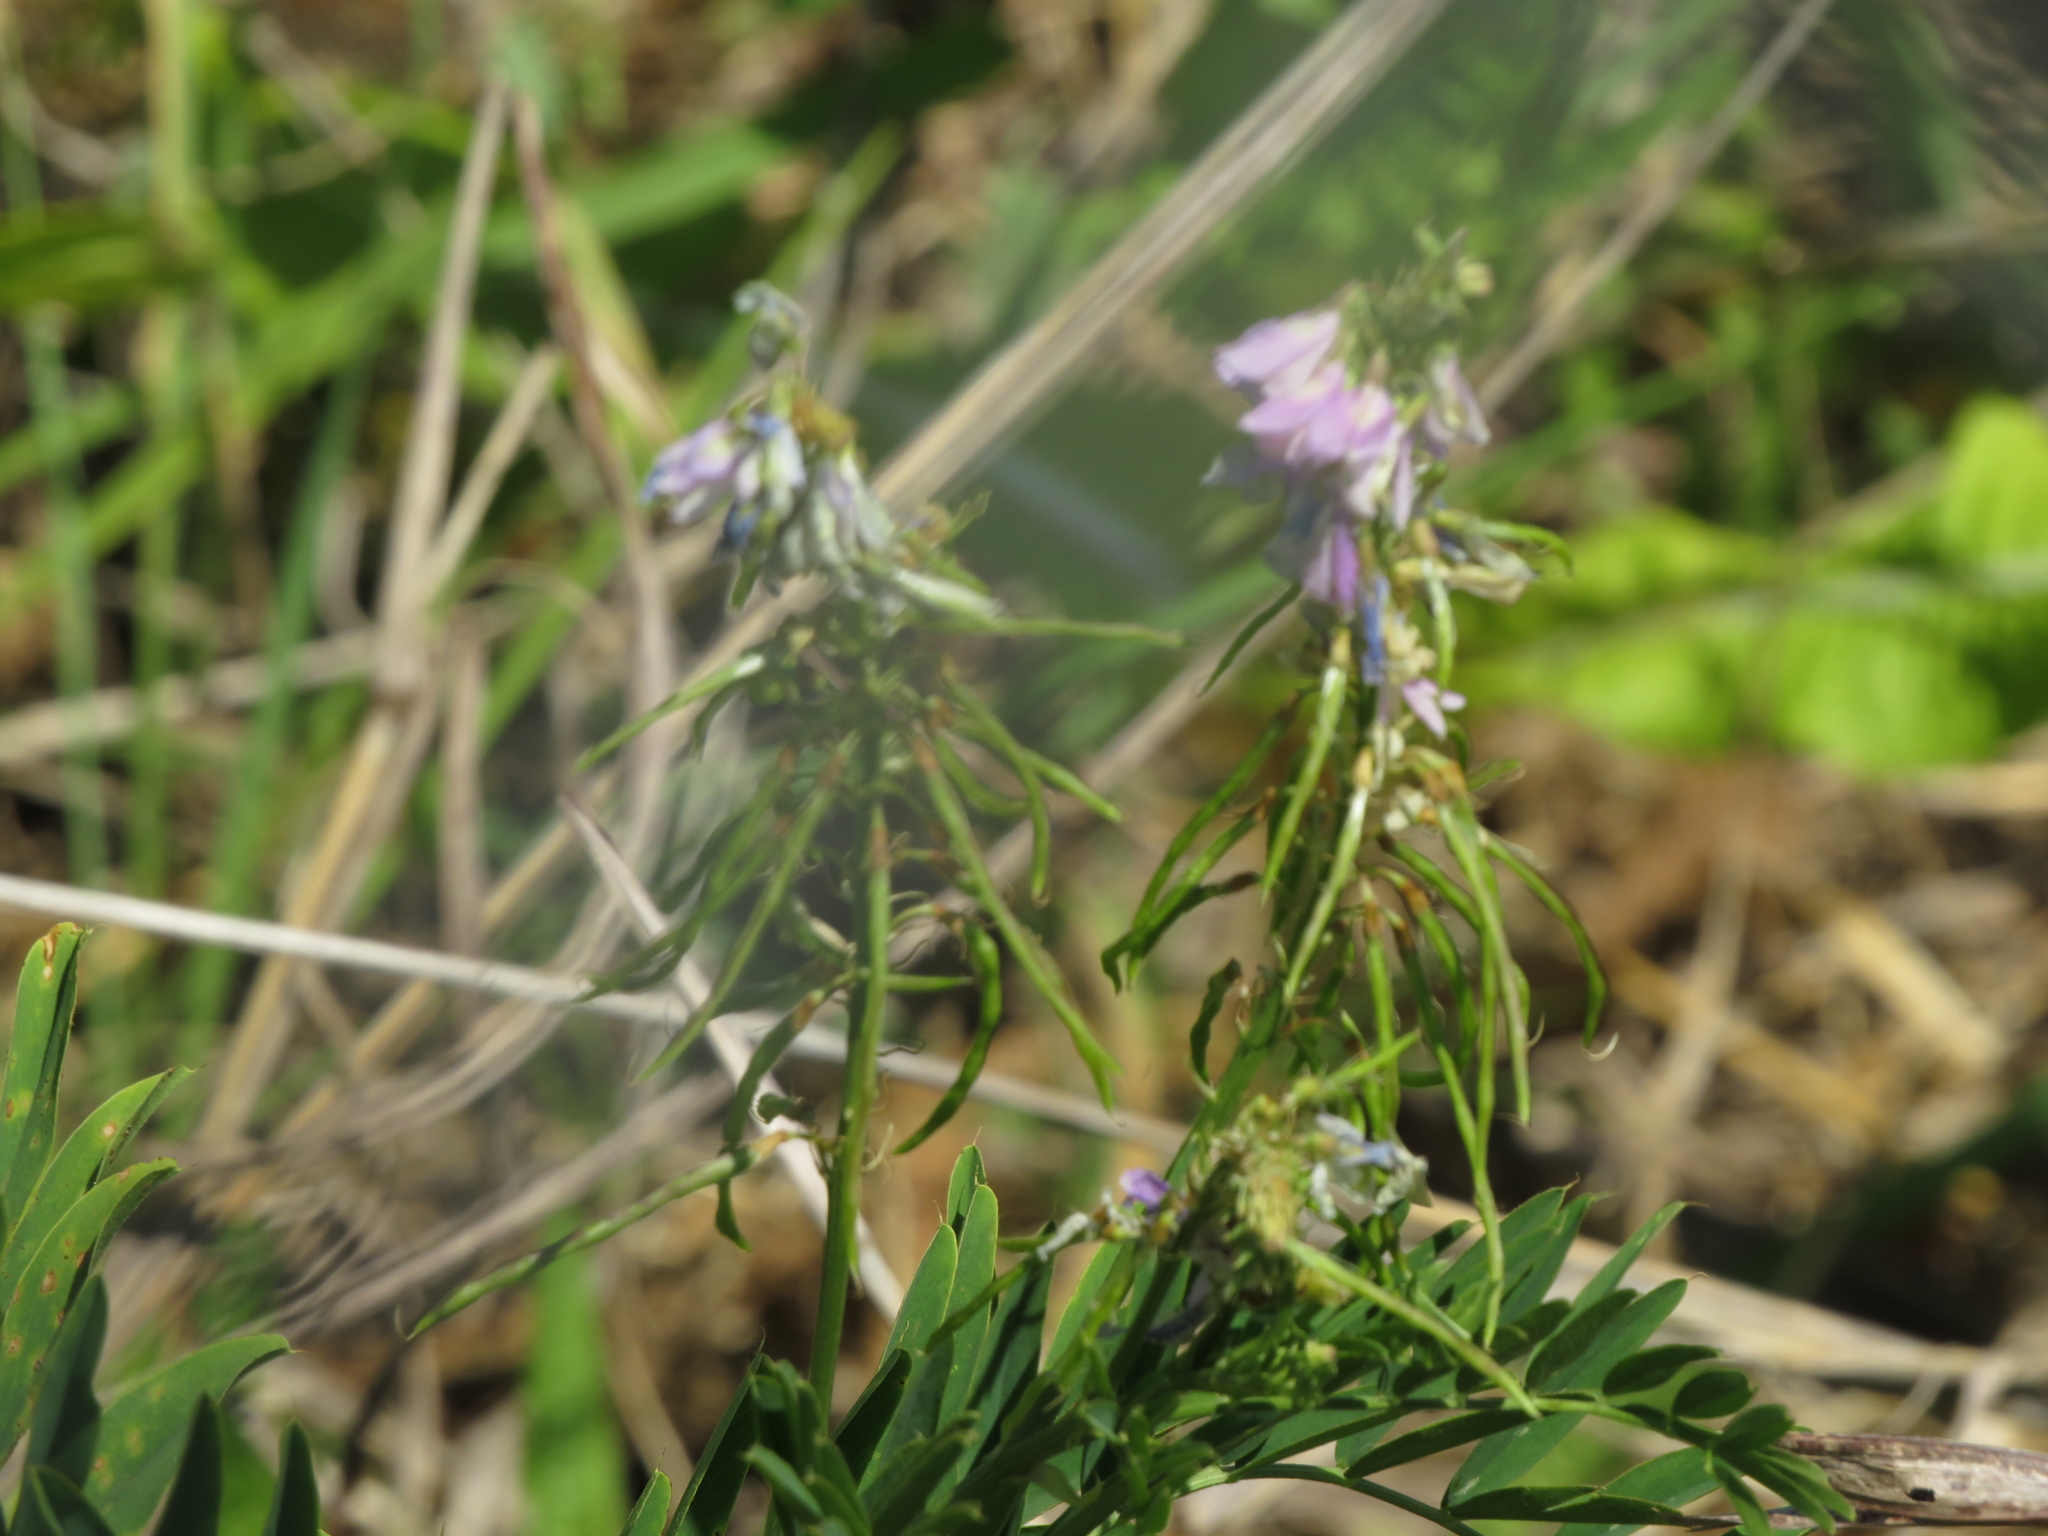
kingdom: Plantae
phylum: Tracheophyta
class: Magnoliopsida
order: Fabales
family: Fabaceae
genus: Galega
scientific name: Galega officinalis
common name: Goat's-rue
